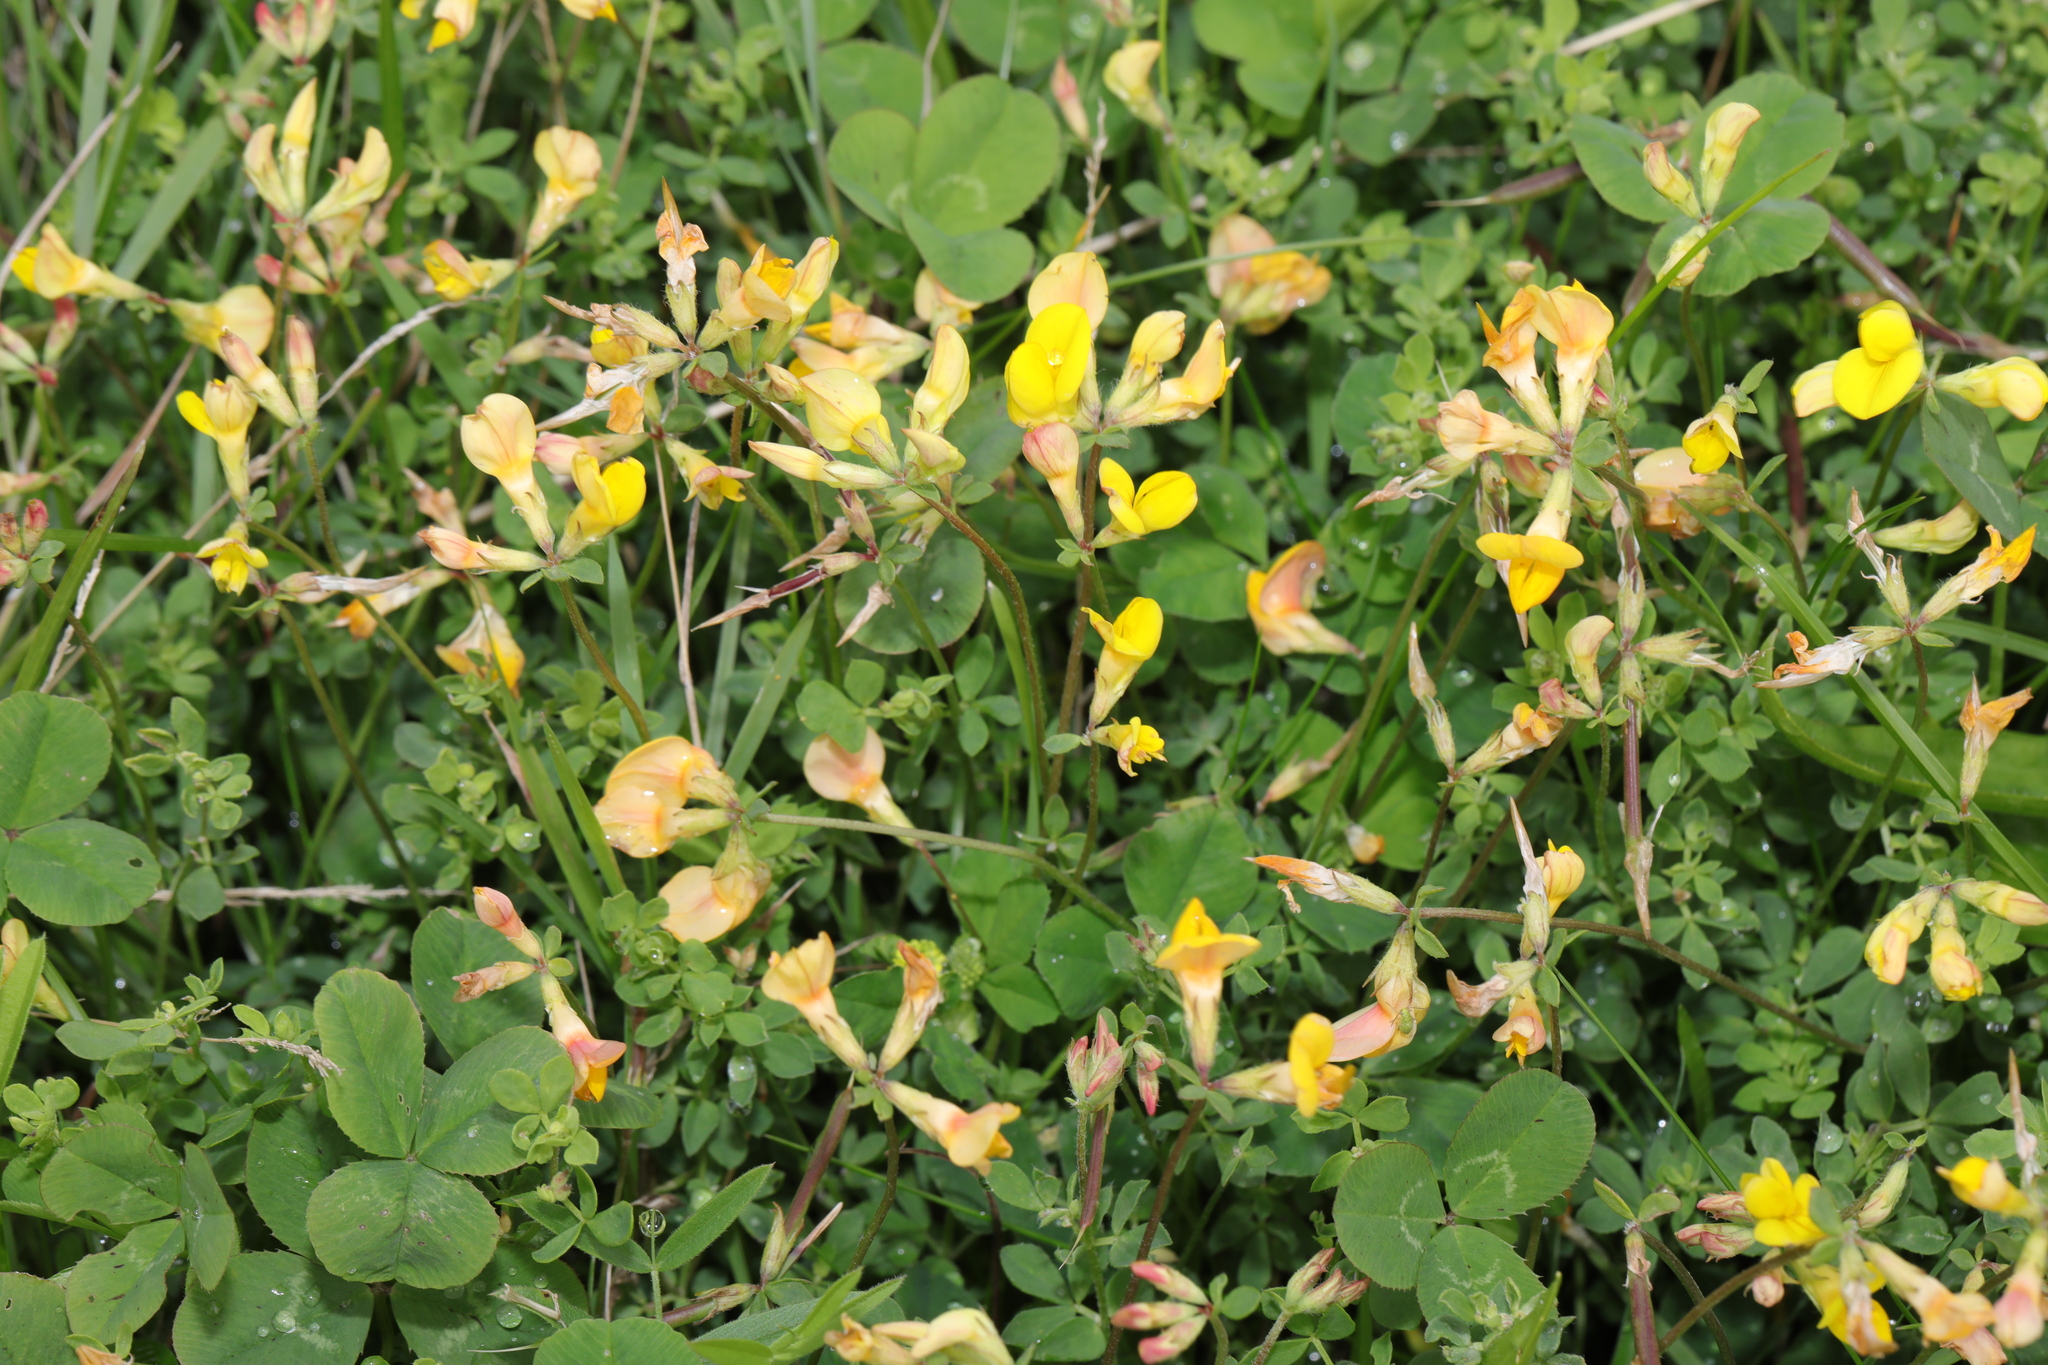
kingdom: Plantae
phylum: Tracheophyta
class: Magnoliopsida
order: Fabales
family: Fabaceae
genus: Lotus
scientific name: Lotus corniculatus
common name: Common bird's-foot-trefoil
